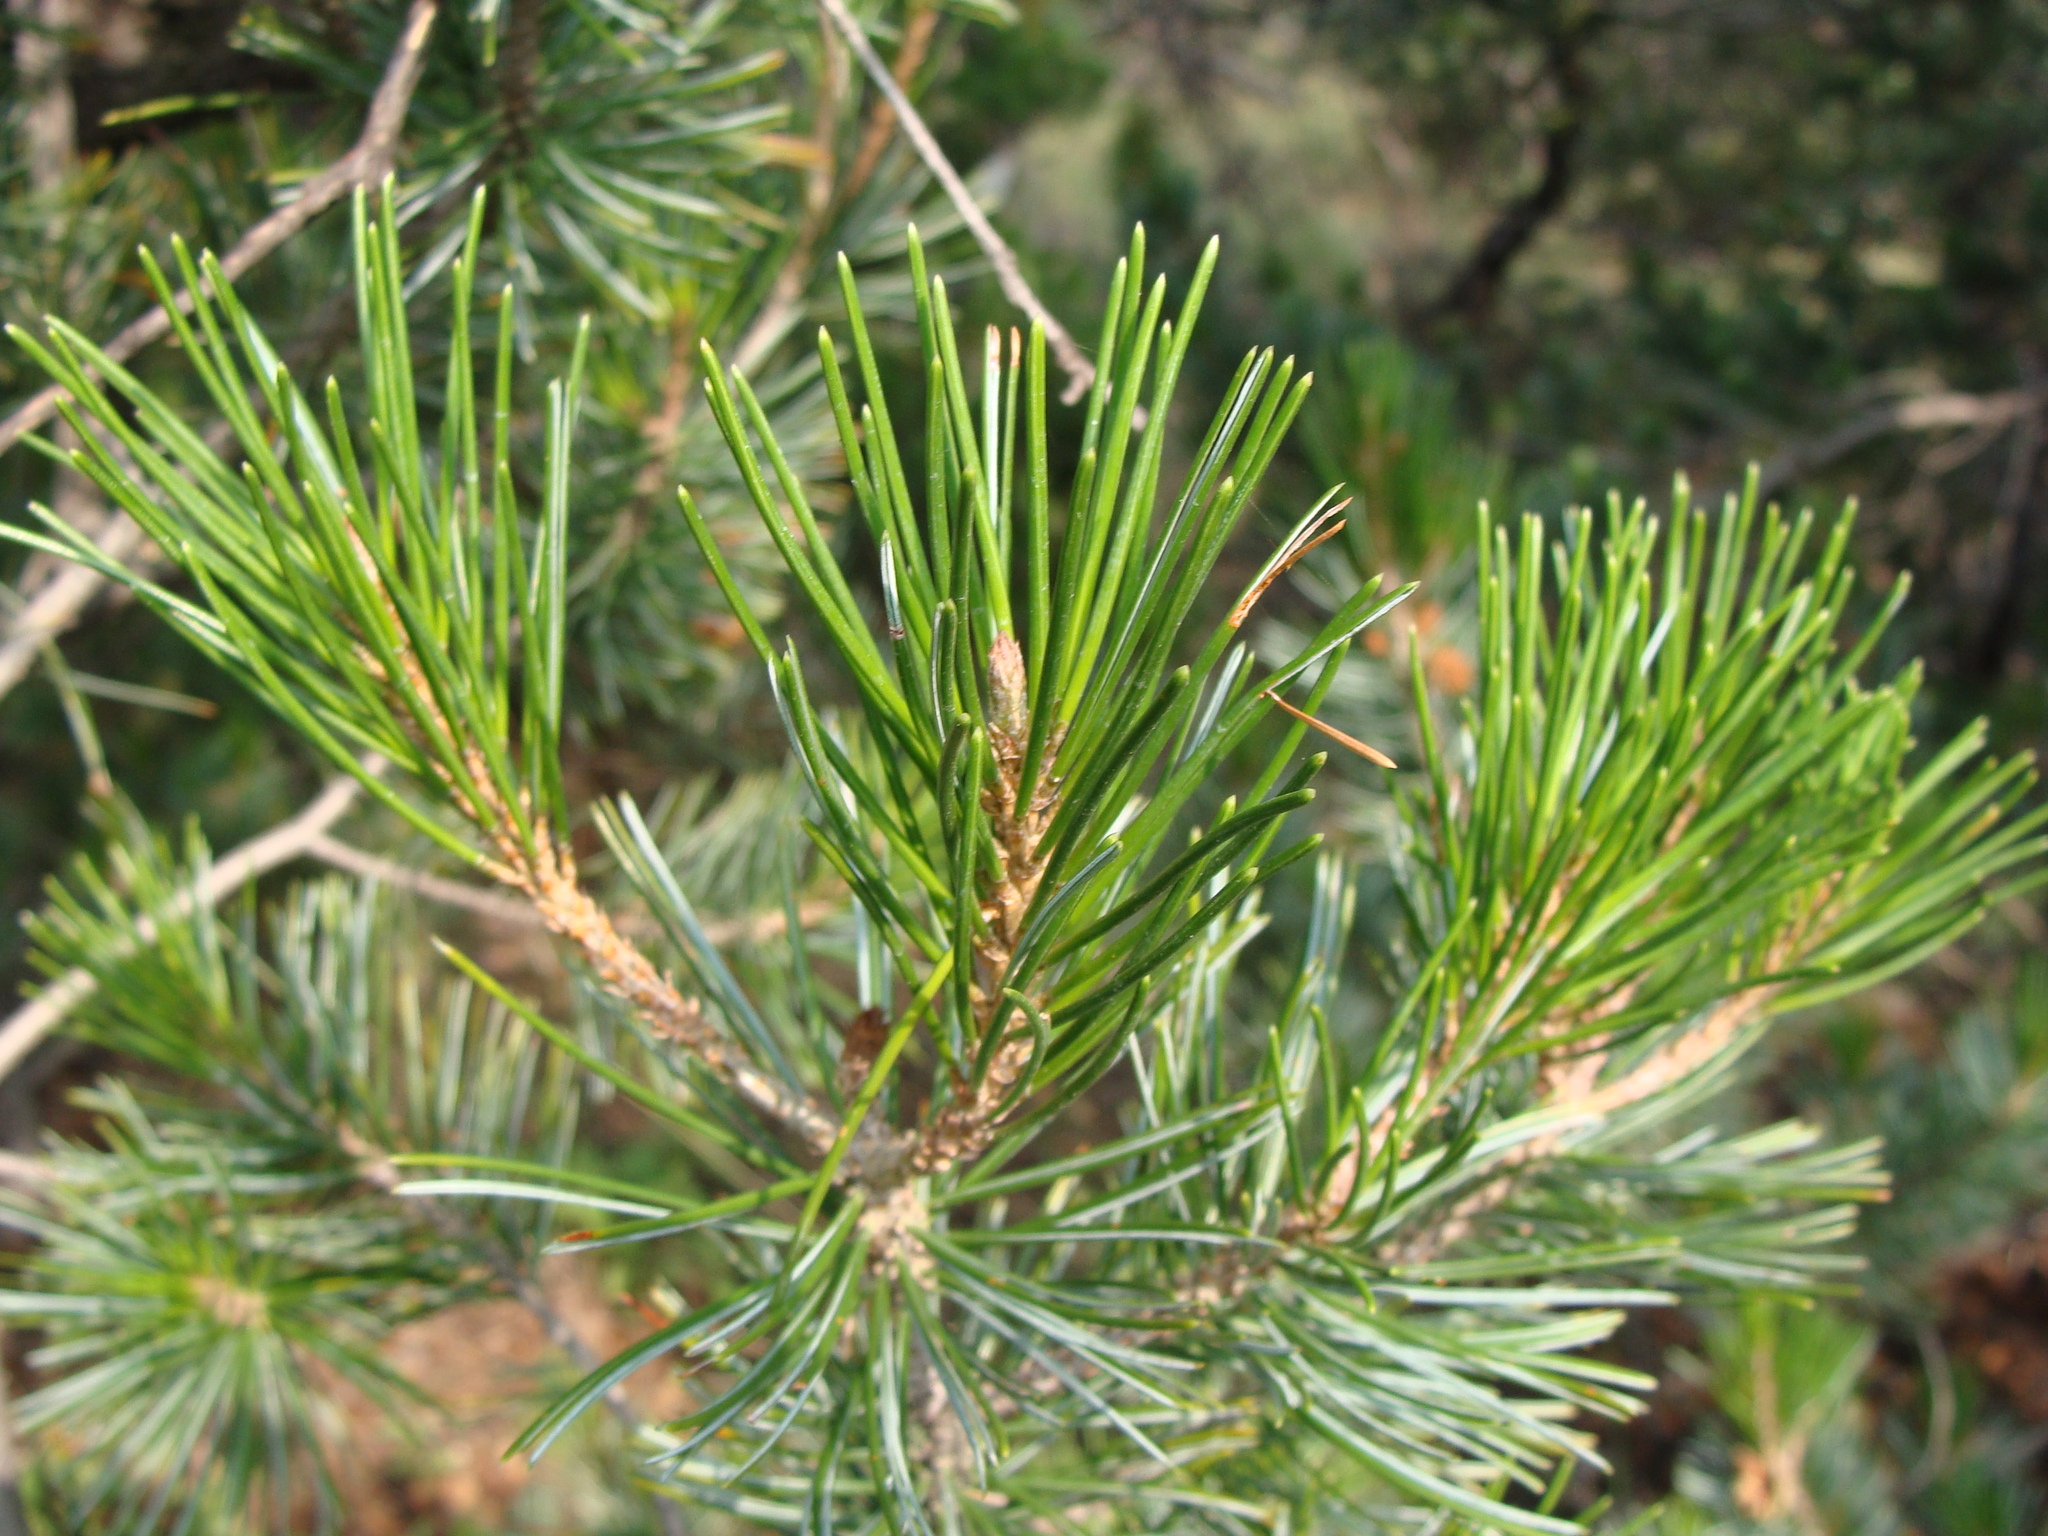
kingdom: Plantae
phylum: Tracheophyta
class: Pinopsida
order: Pinales
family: Pinaceae
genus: Pinus
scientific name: Pinus discolor
